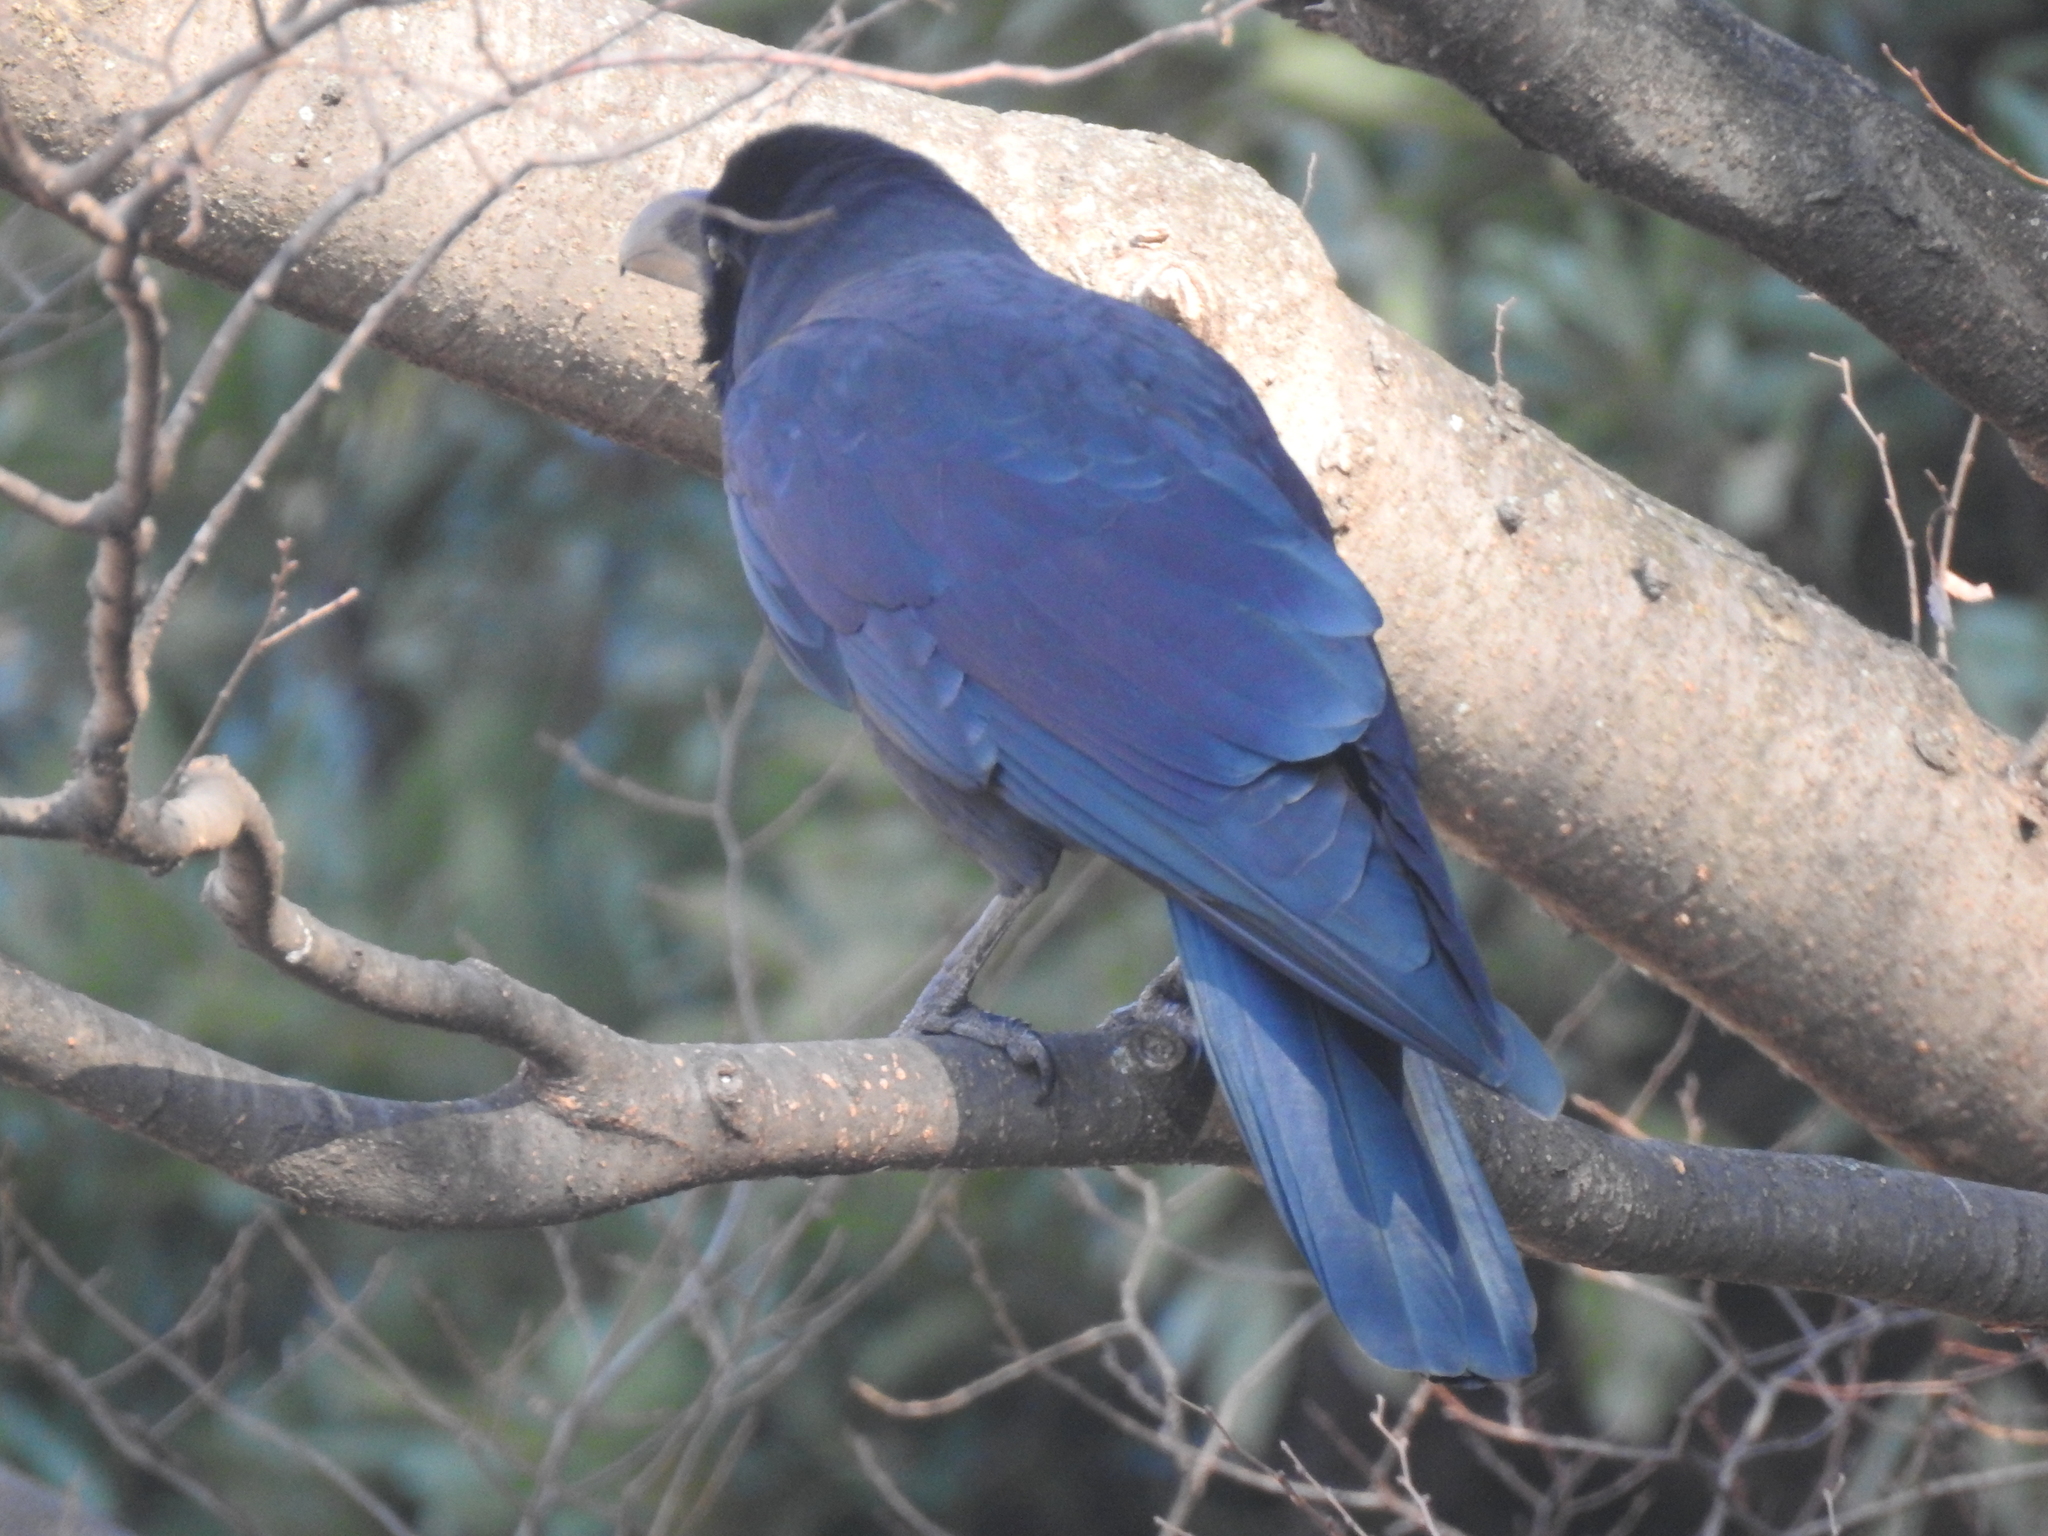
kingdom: Animalia
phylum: Chordata
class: Aves
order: Passeriformes
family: Corvidae
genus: Corvus
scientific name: Corvus macrorhynchos
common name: Large-billed crow
